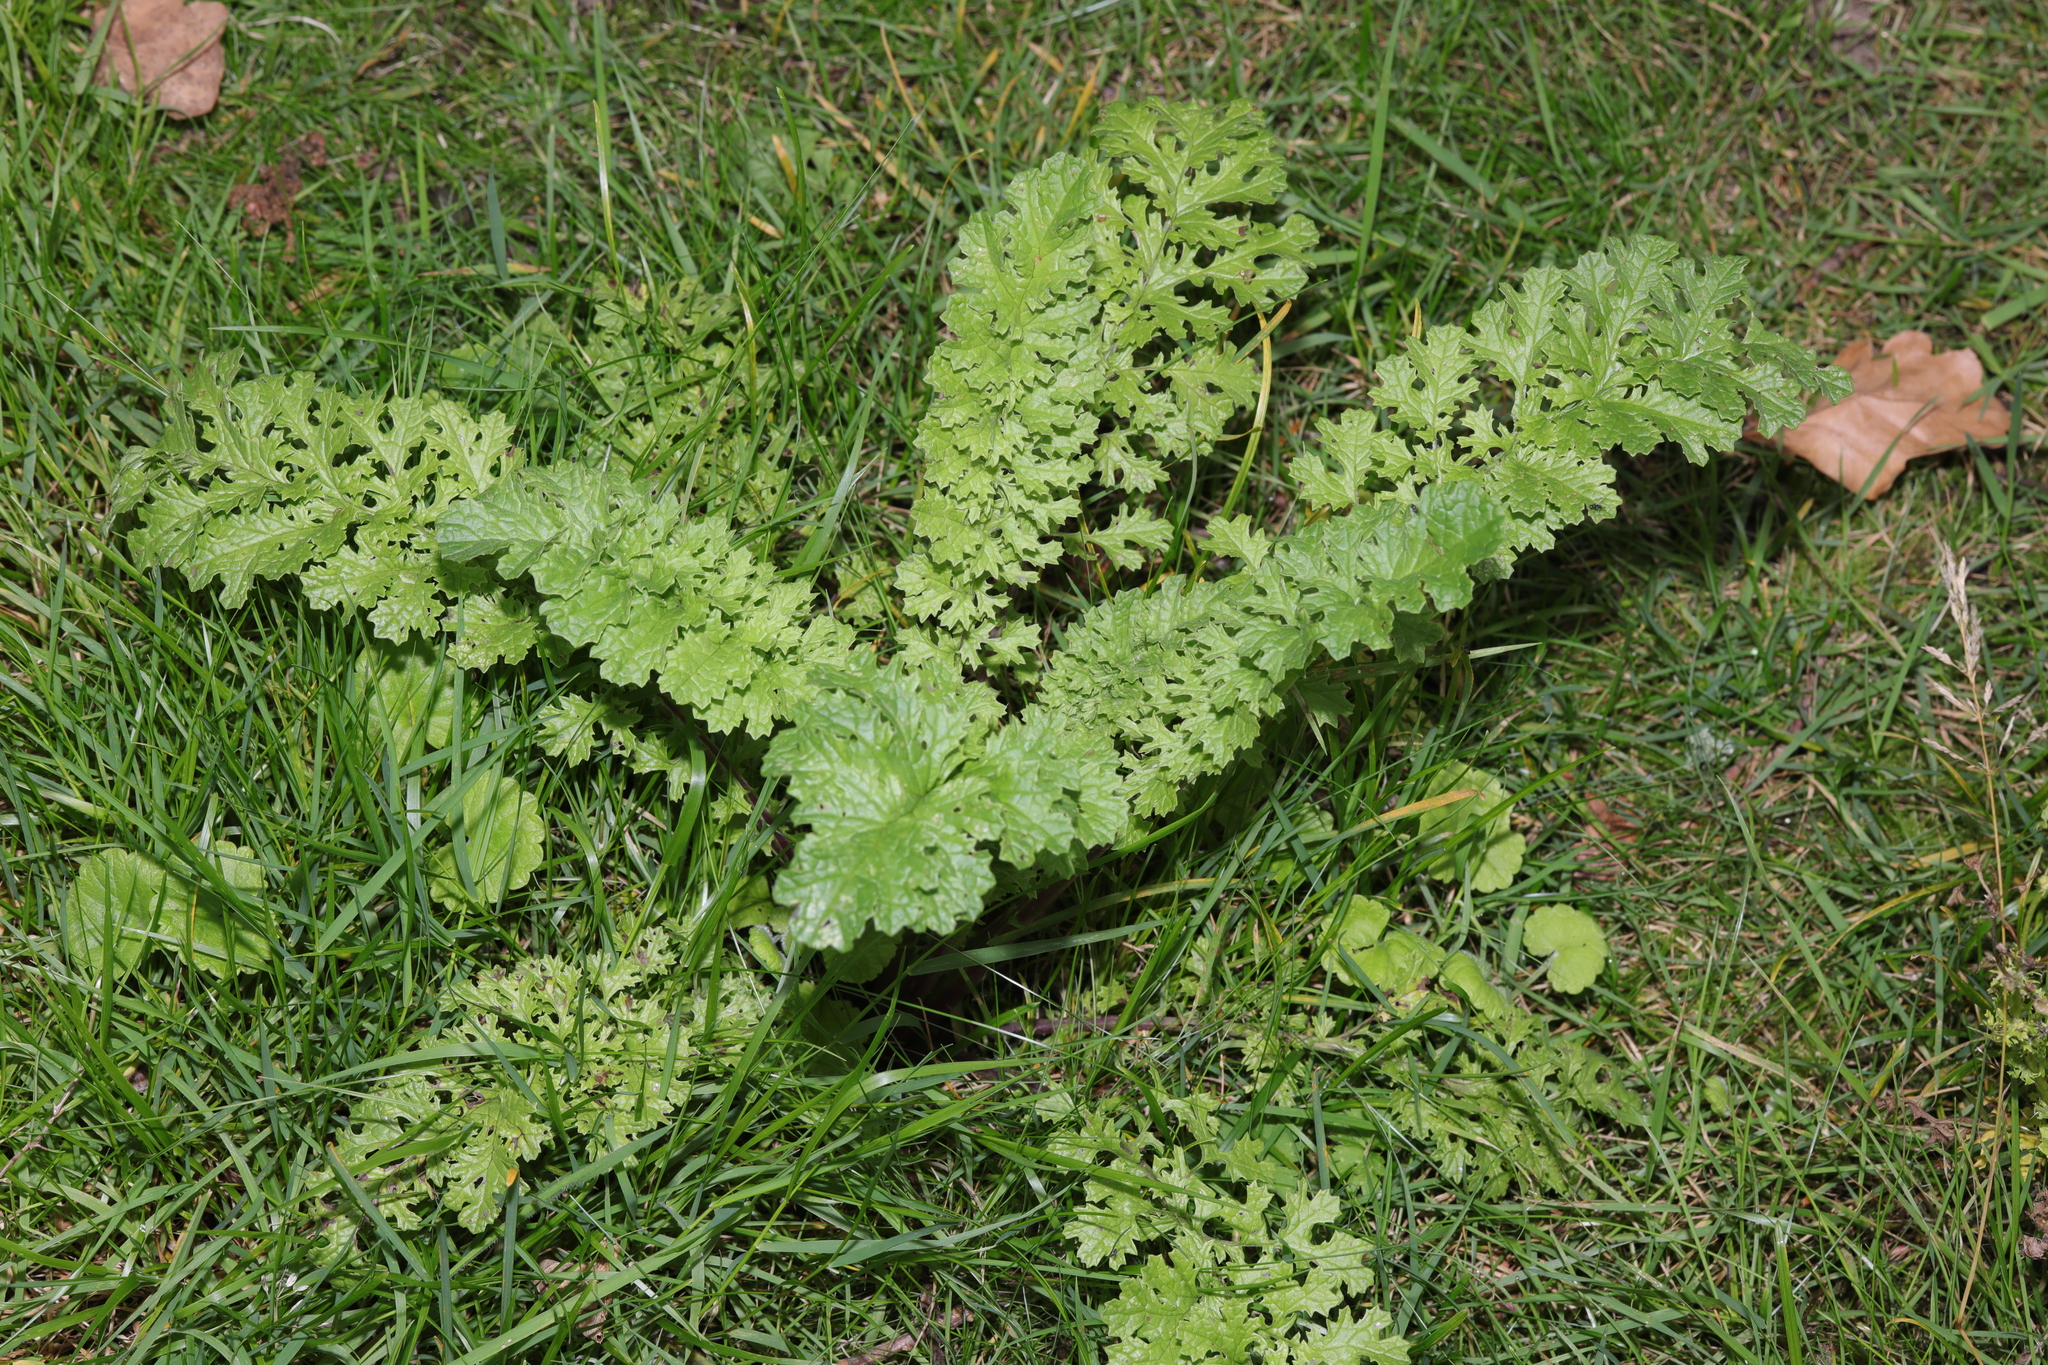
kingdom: Plantae
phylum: Tracheophyta
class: Magnoliopsida
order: Asterales
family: Asteraceae
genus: Jacobaea
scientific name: Jacobaea vulgaris
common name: Stinking willie
